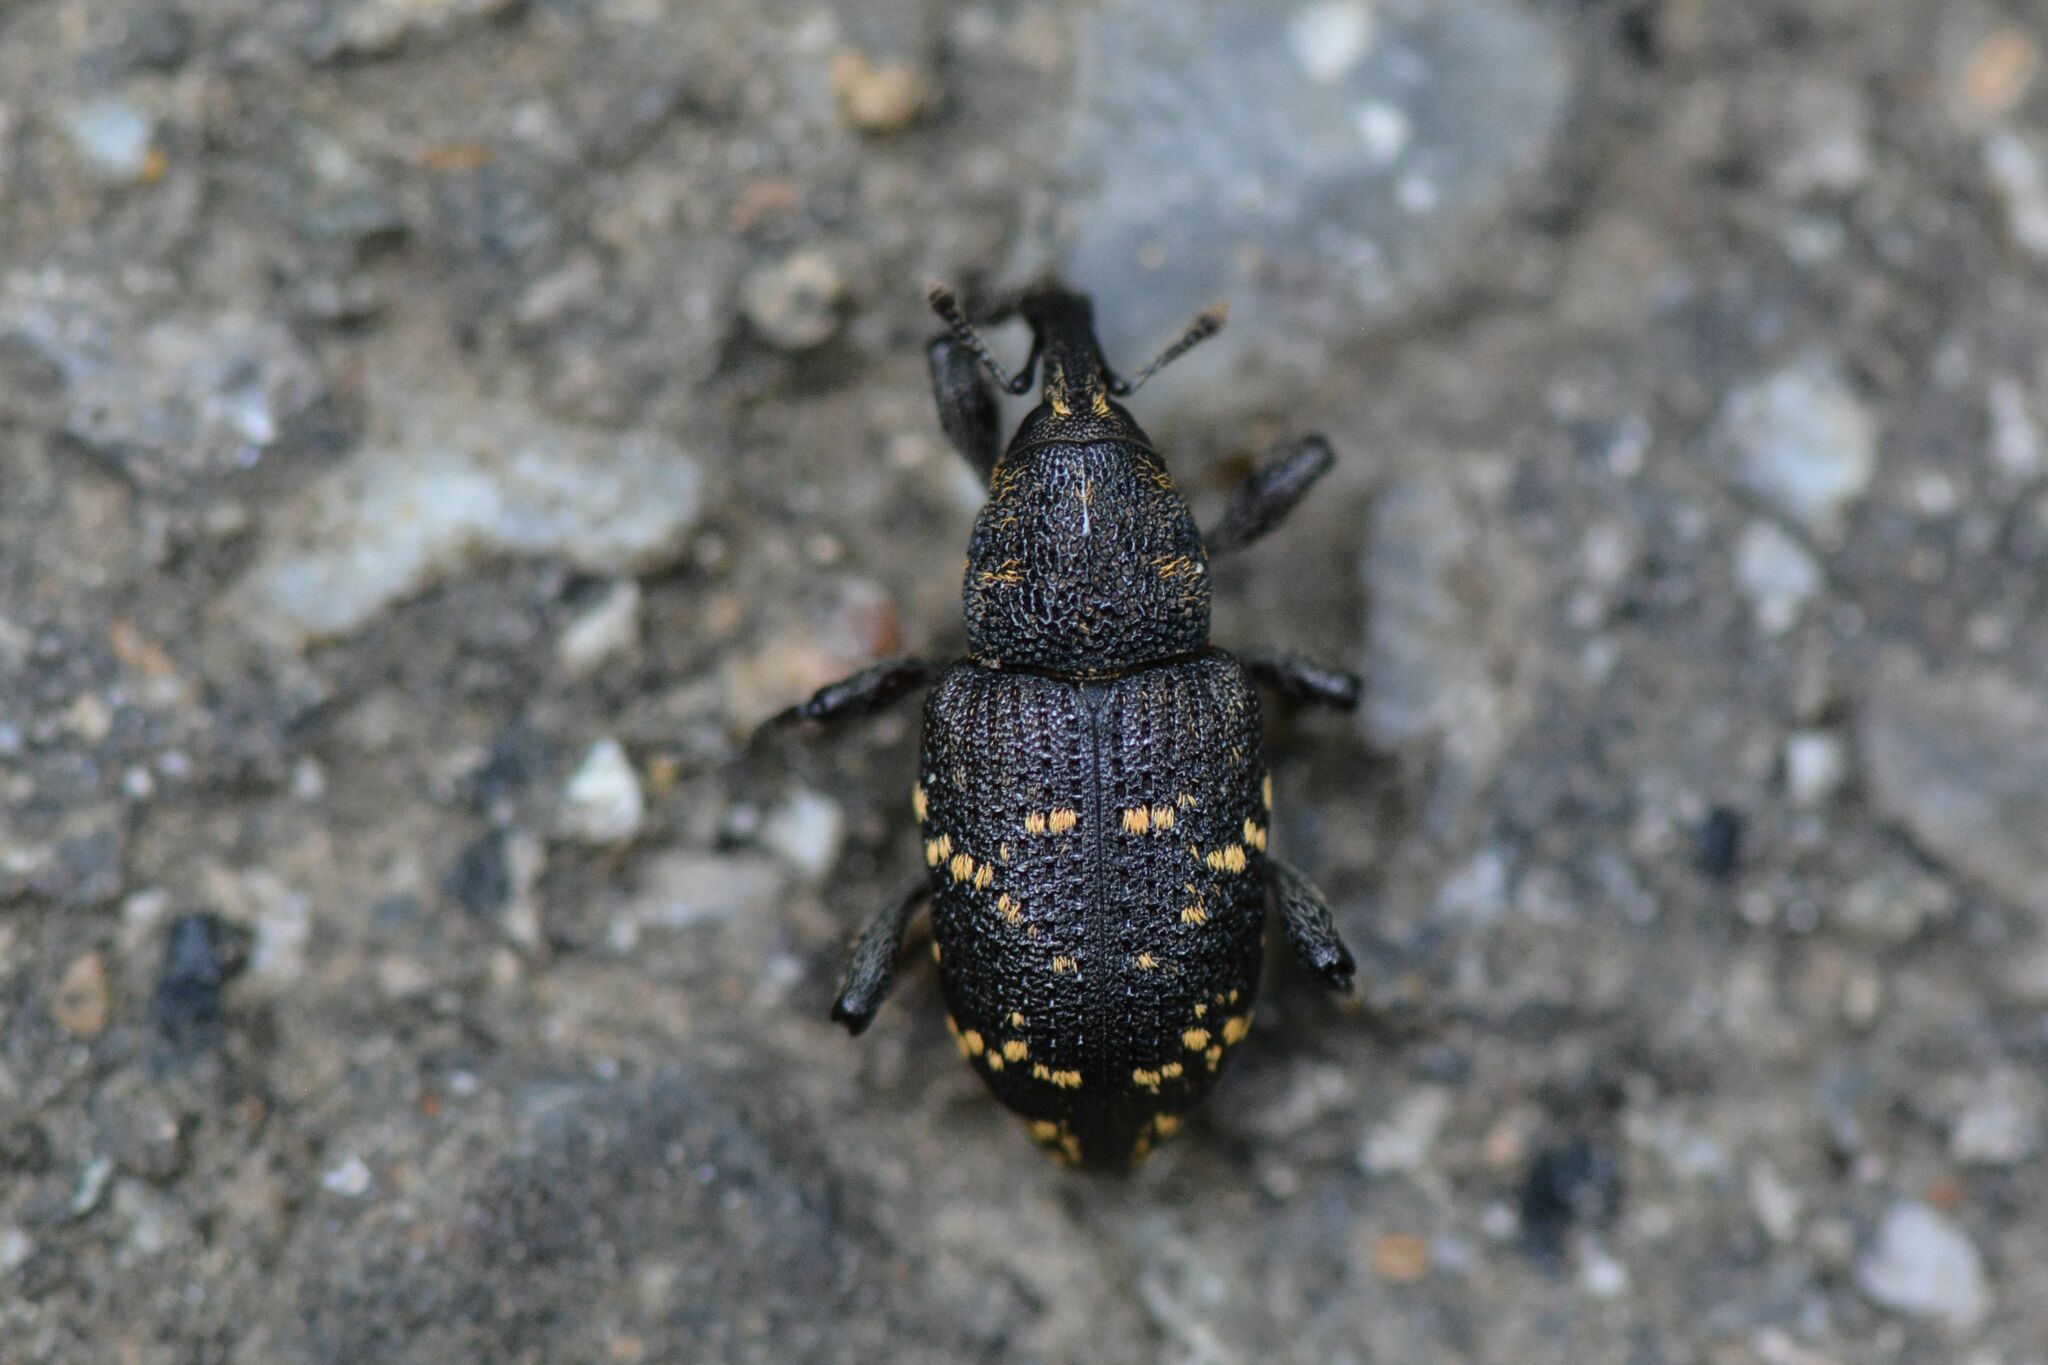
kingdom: Animalia
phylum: Arthropoda
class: Insecta
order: Coleoptera
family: Curculionidae
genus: Hylobius
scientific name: Hylobius abietis
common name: Large pine weevil
